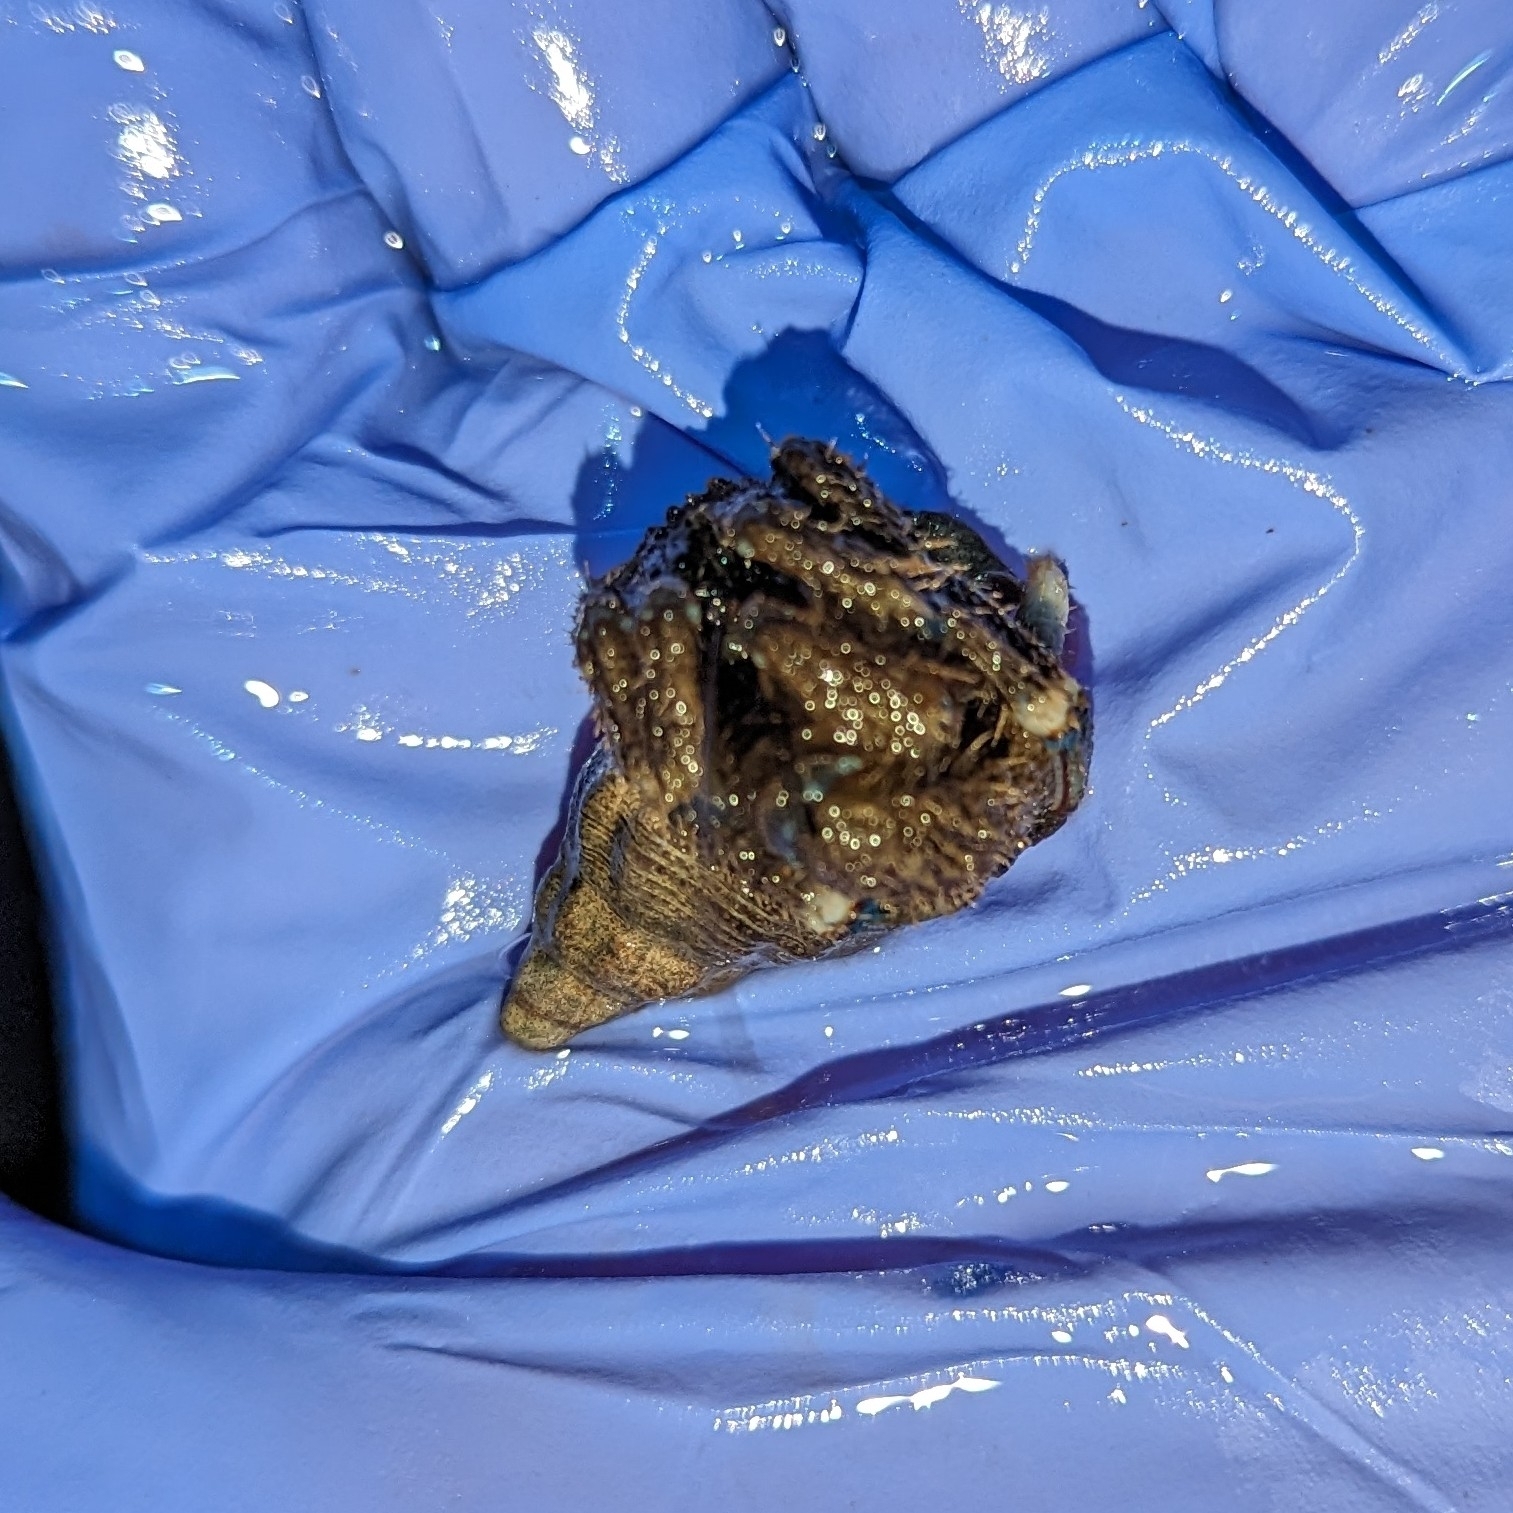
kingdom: Animalia
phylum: Arthropoda
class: Malacostraca
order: Decapoda
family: Paguridae
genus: Pagurus
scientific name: Pagurus hirsutiusculus
